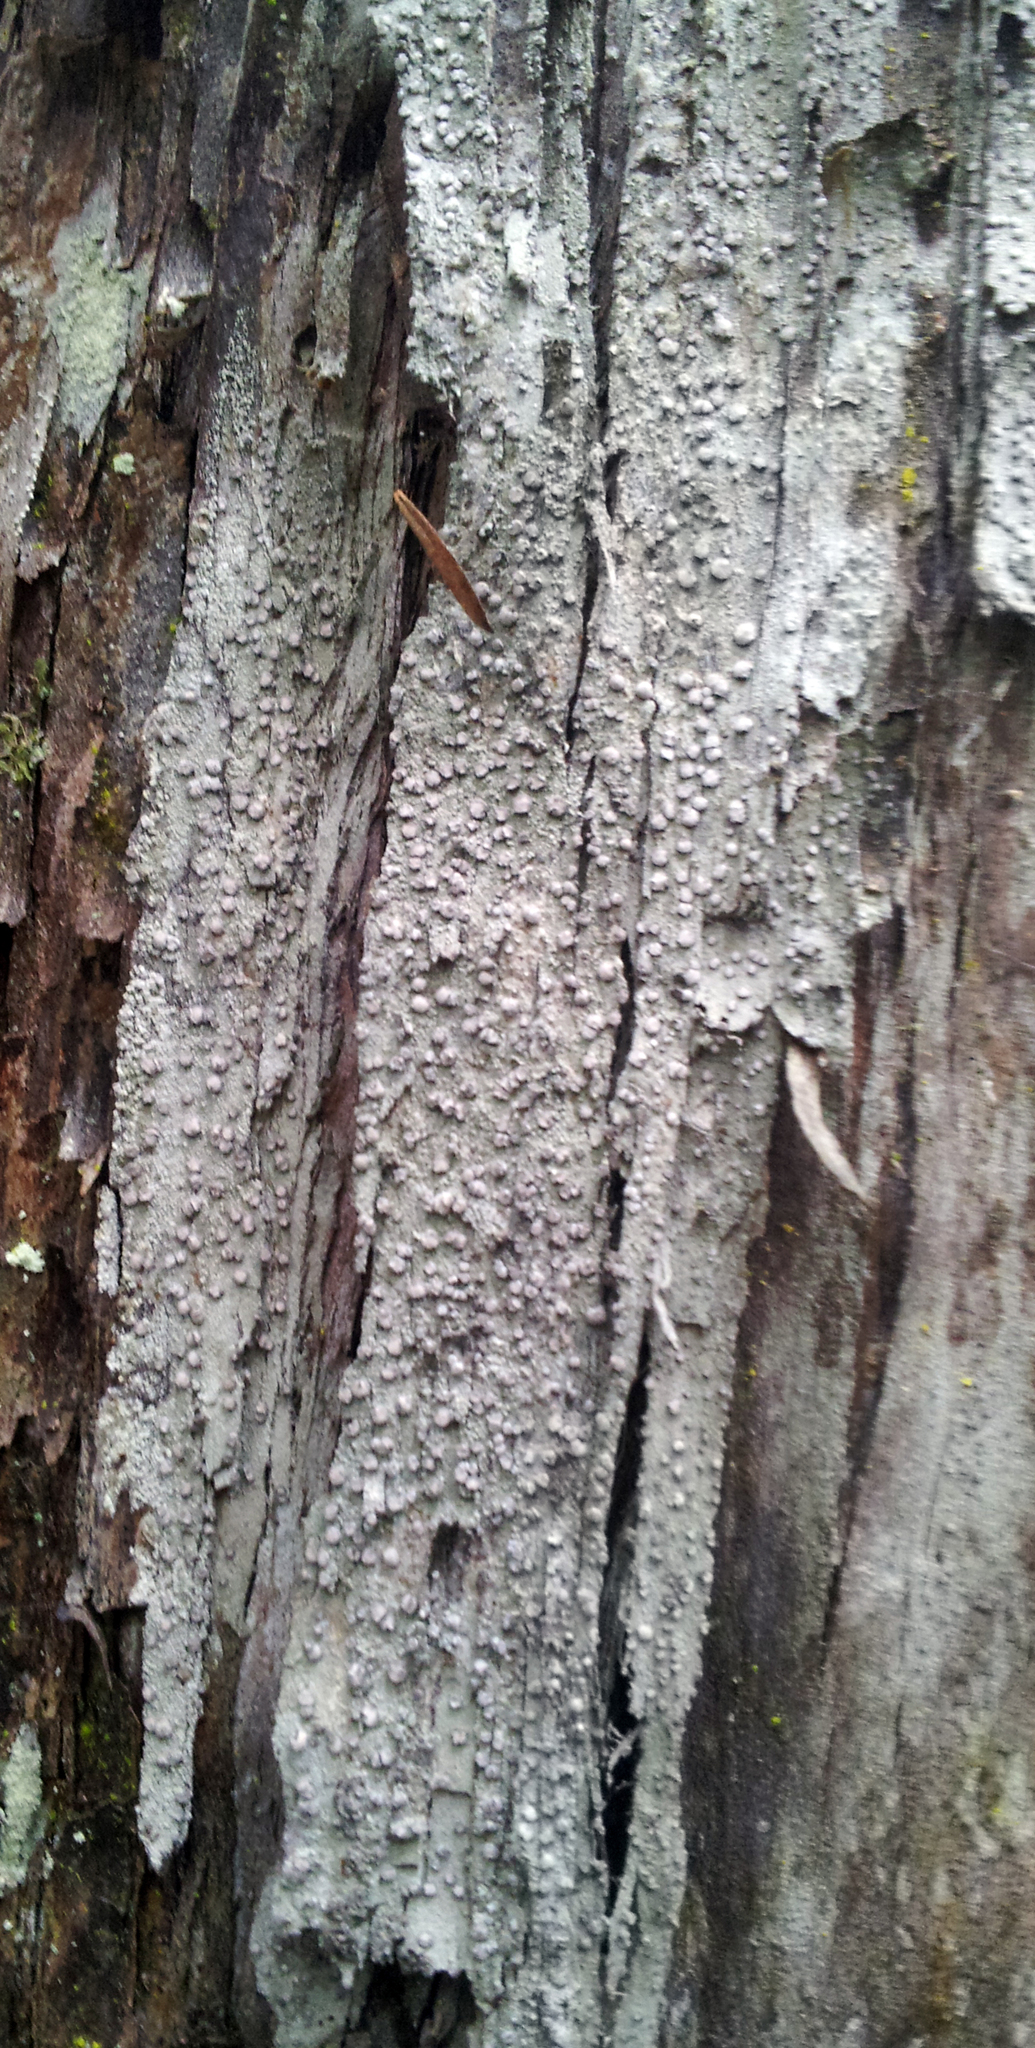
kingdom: Fungi
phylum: Ascomycota
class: Arthoniomycetes
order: Arthoniales
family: Roccellaceae
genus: Lecanactis
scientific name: Lecanactis subfarinosa
